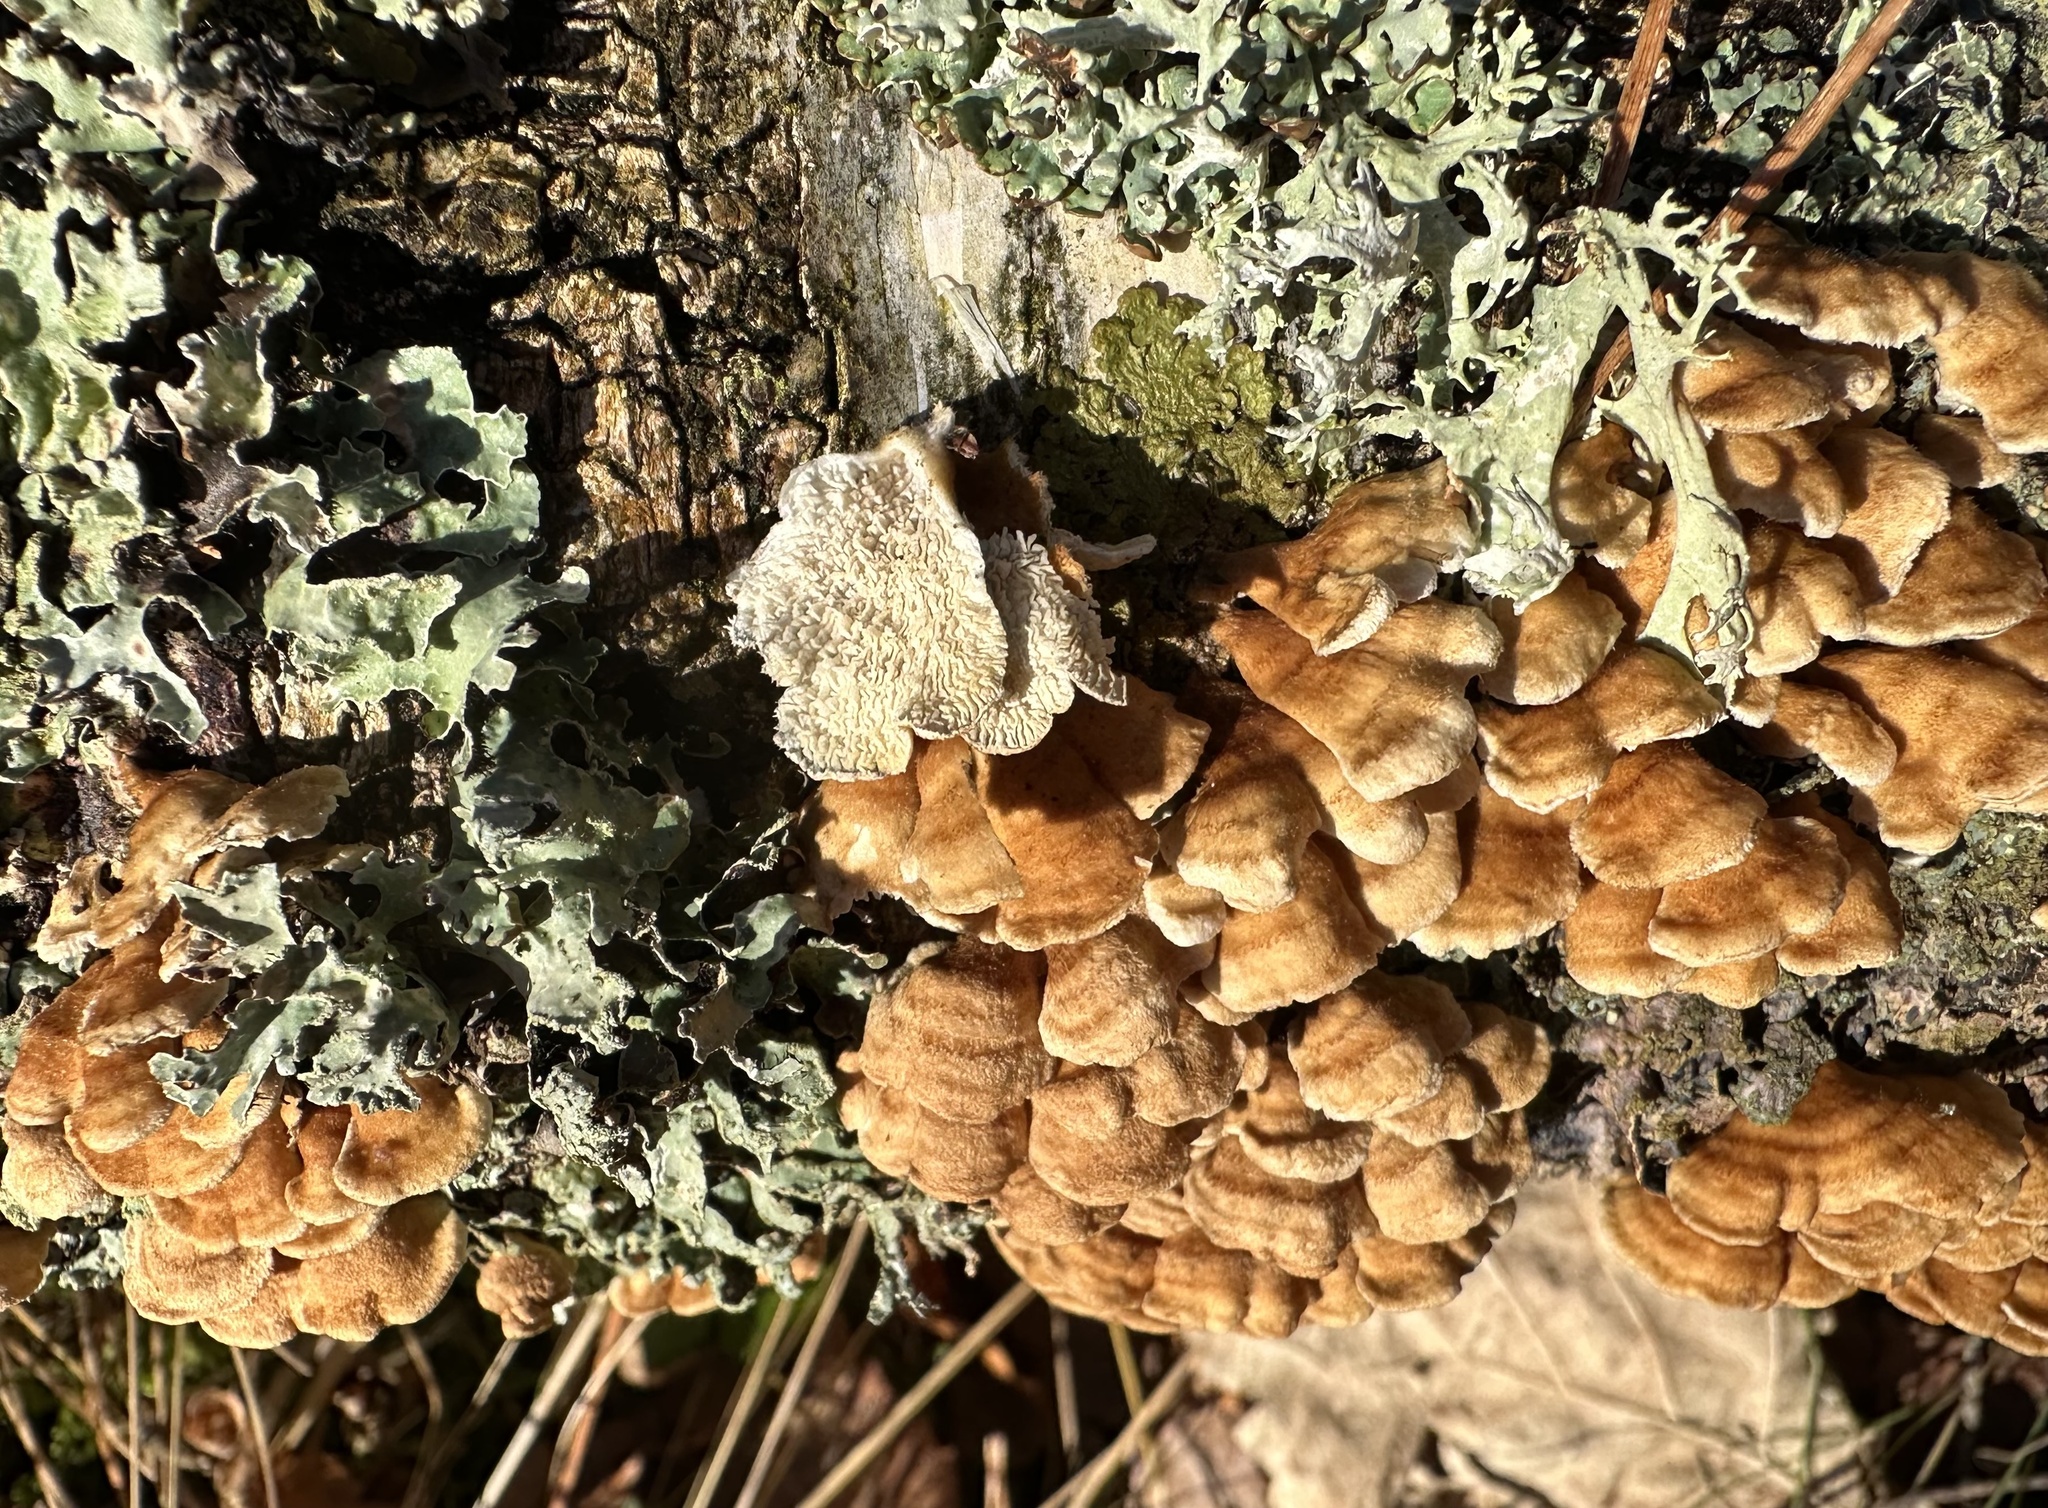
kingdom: Fungi
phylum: Basidiomycota
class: Agaricomycetes
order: Amylocorticiales
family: Amylocorticiaceae
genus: Plicaturopsis
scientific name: Plicaturopsis crispa
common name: Crimped gill
